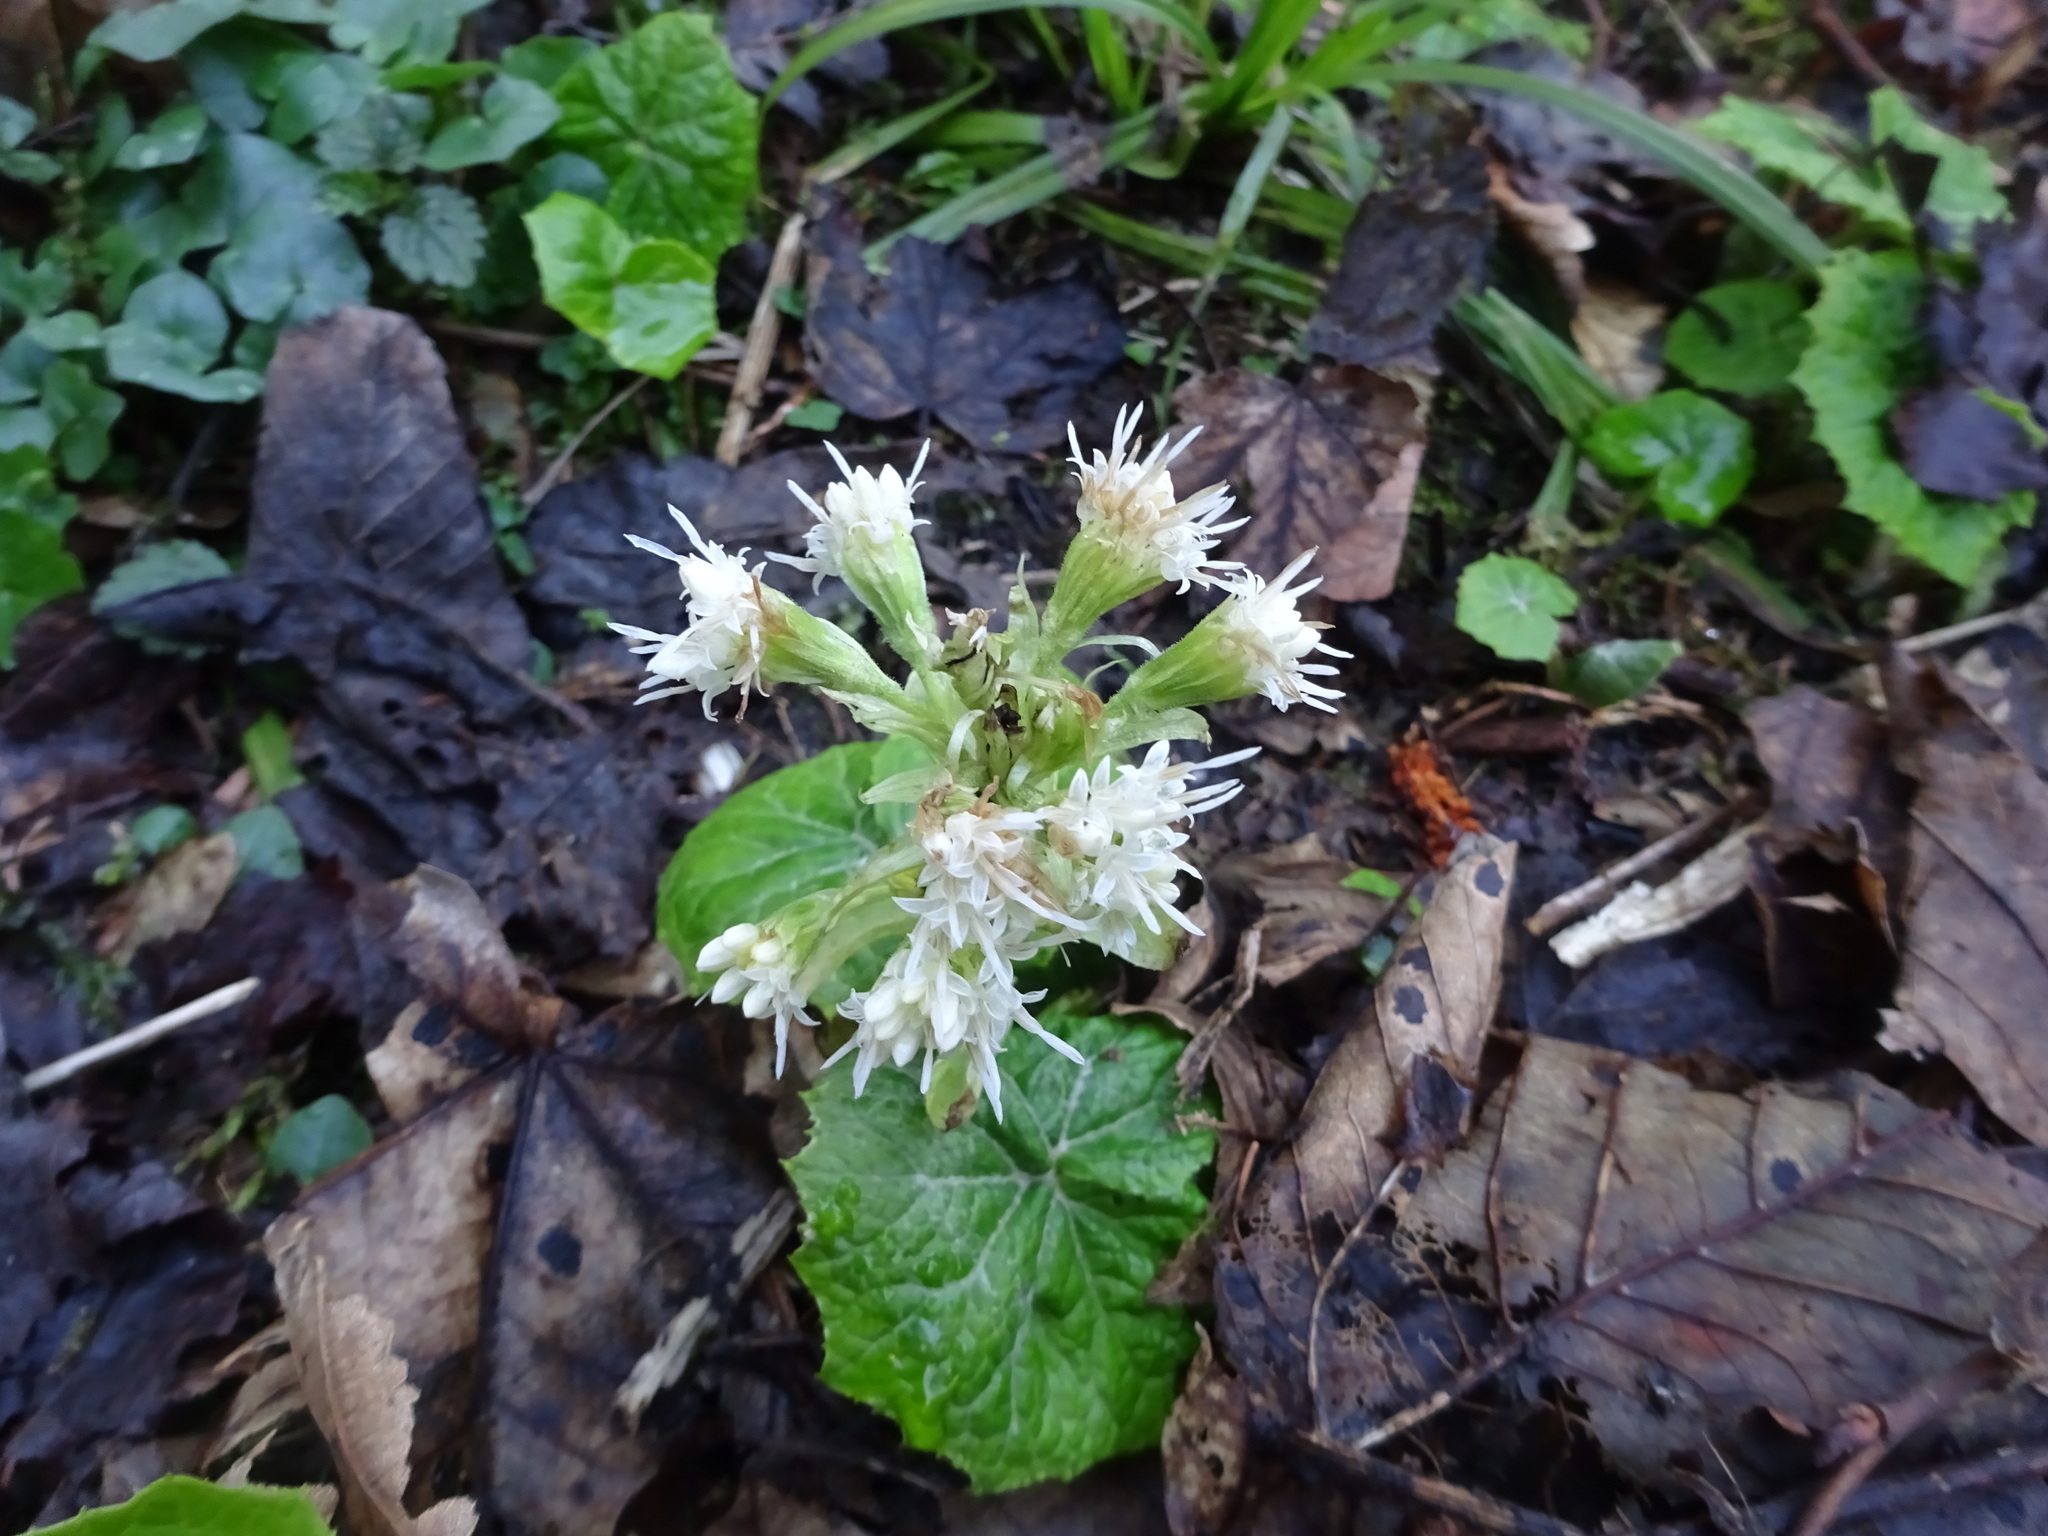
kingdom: Plantae
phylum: Tracheophyta
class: Magnoliopsida
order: Asterales
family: Asteraceae
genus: Petasites
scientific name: Petasites albus
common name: White butterbur
